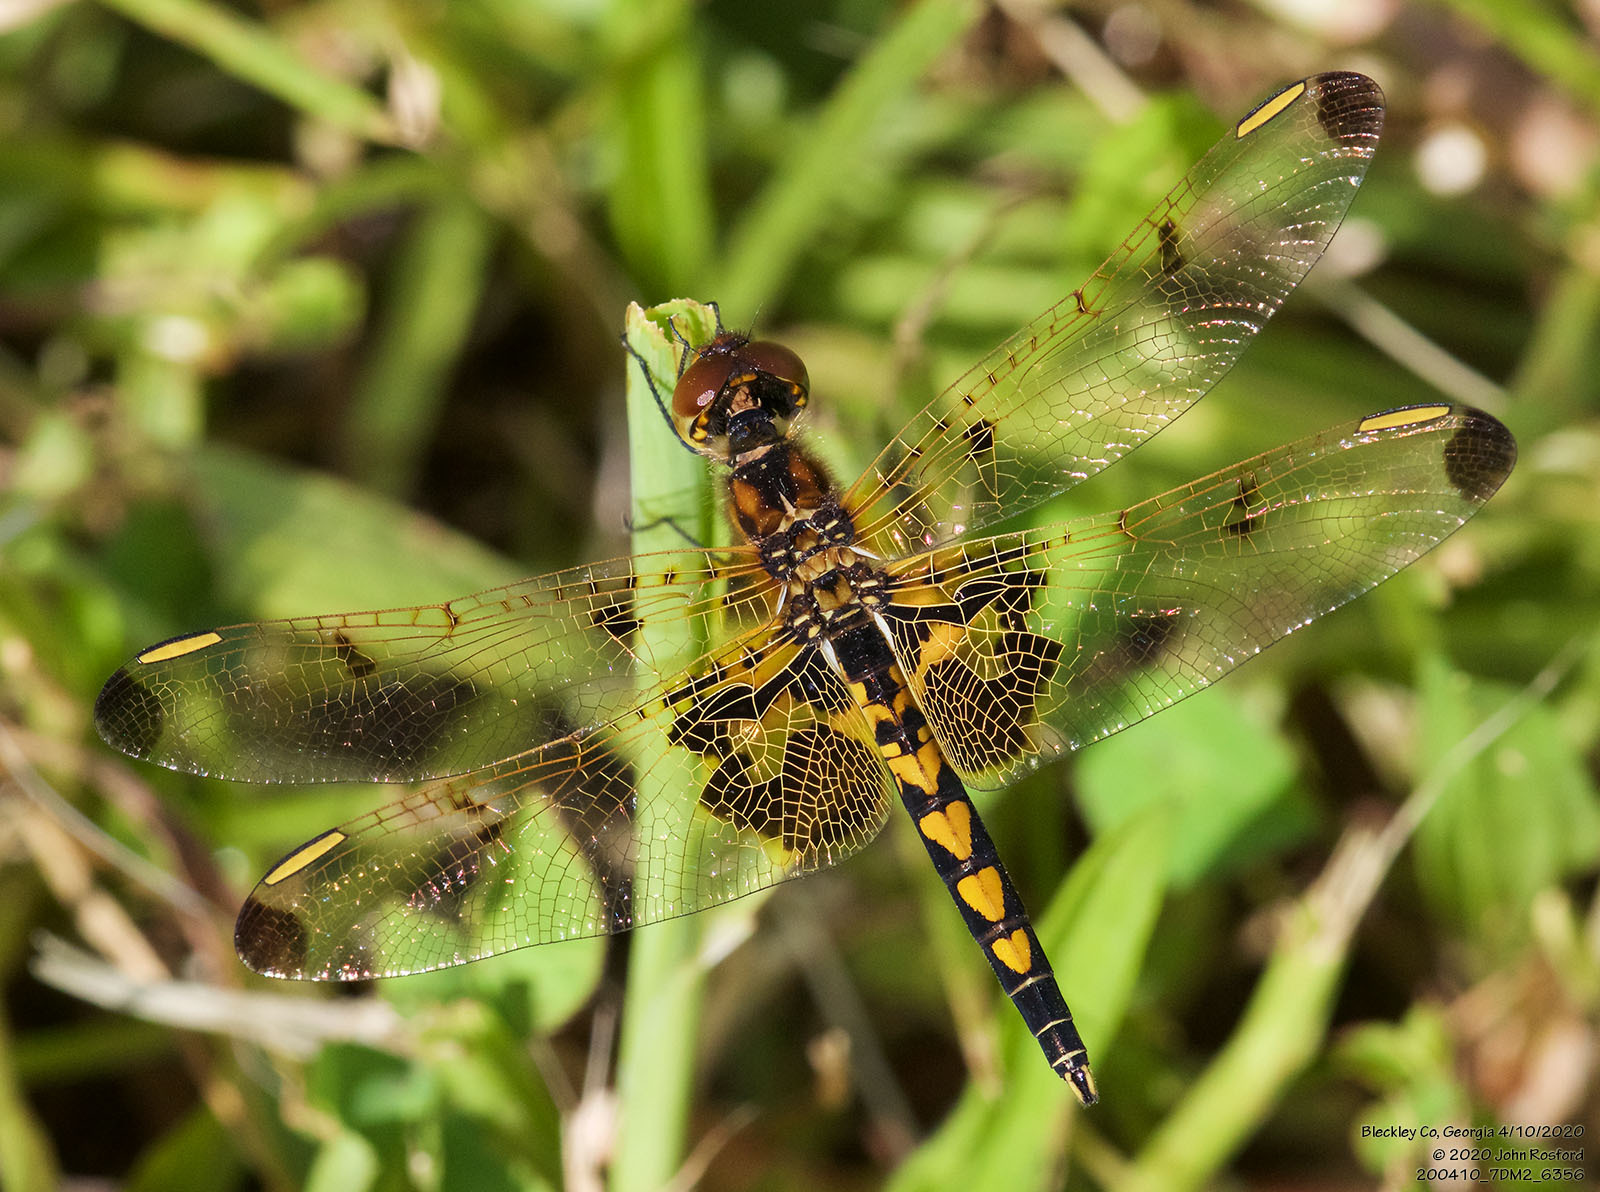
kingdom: Animalia
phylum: Arthropoda
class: Insecta
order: Odonata
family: Libellulidae
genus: Celithemis
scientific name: Celithemis elisa
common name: Calico pennant
